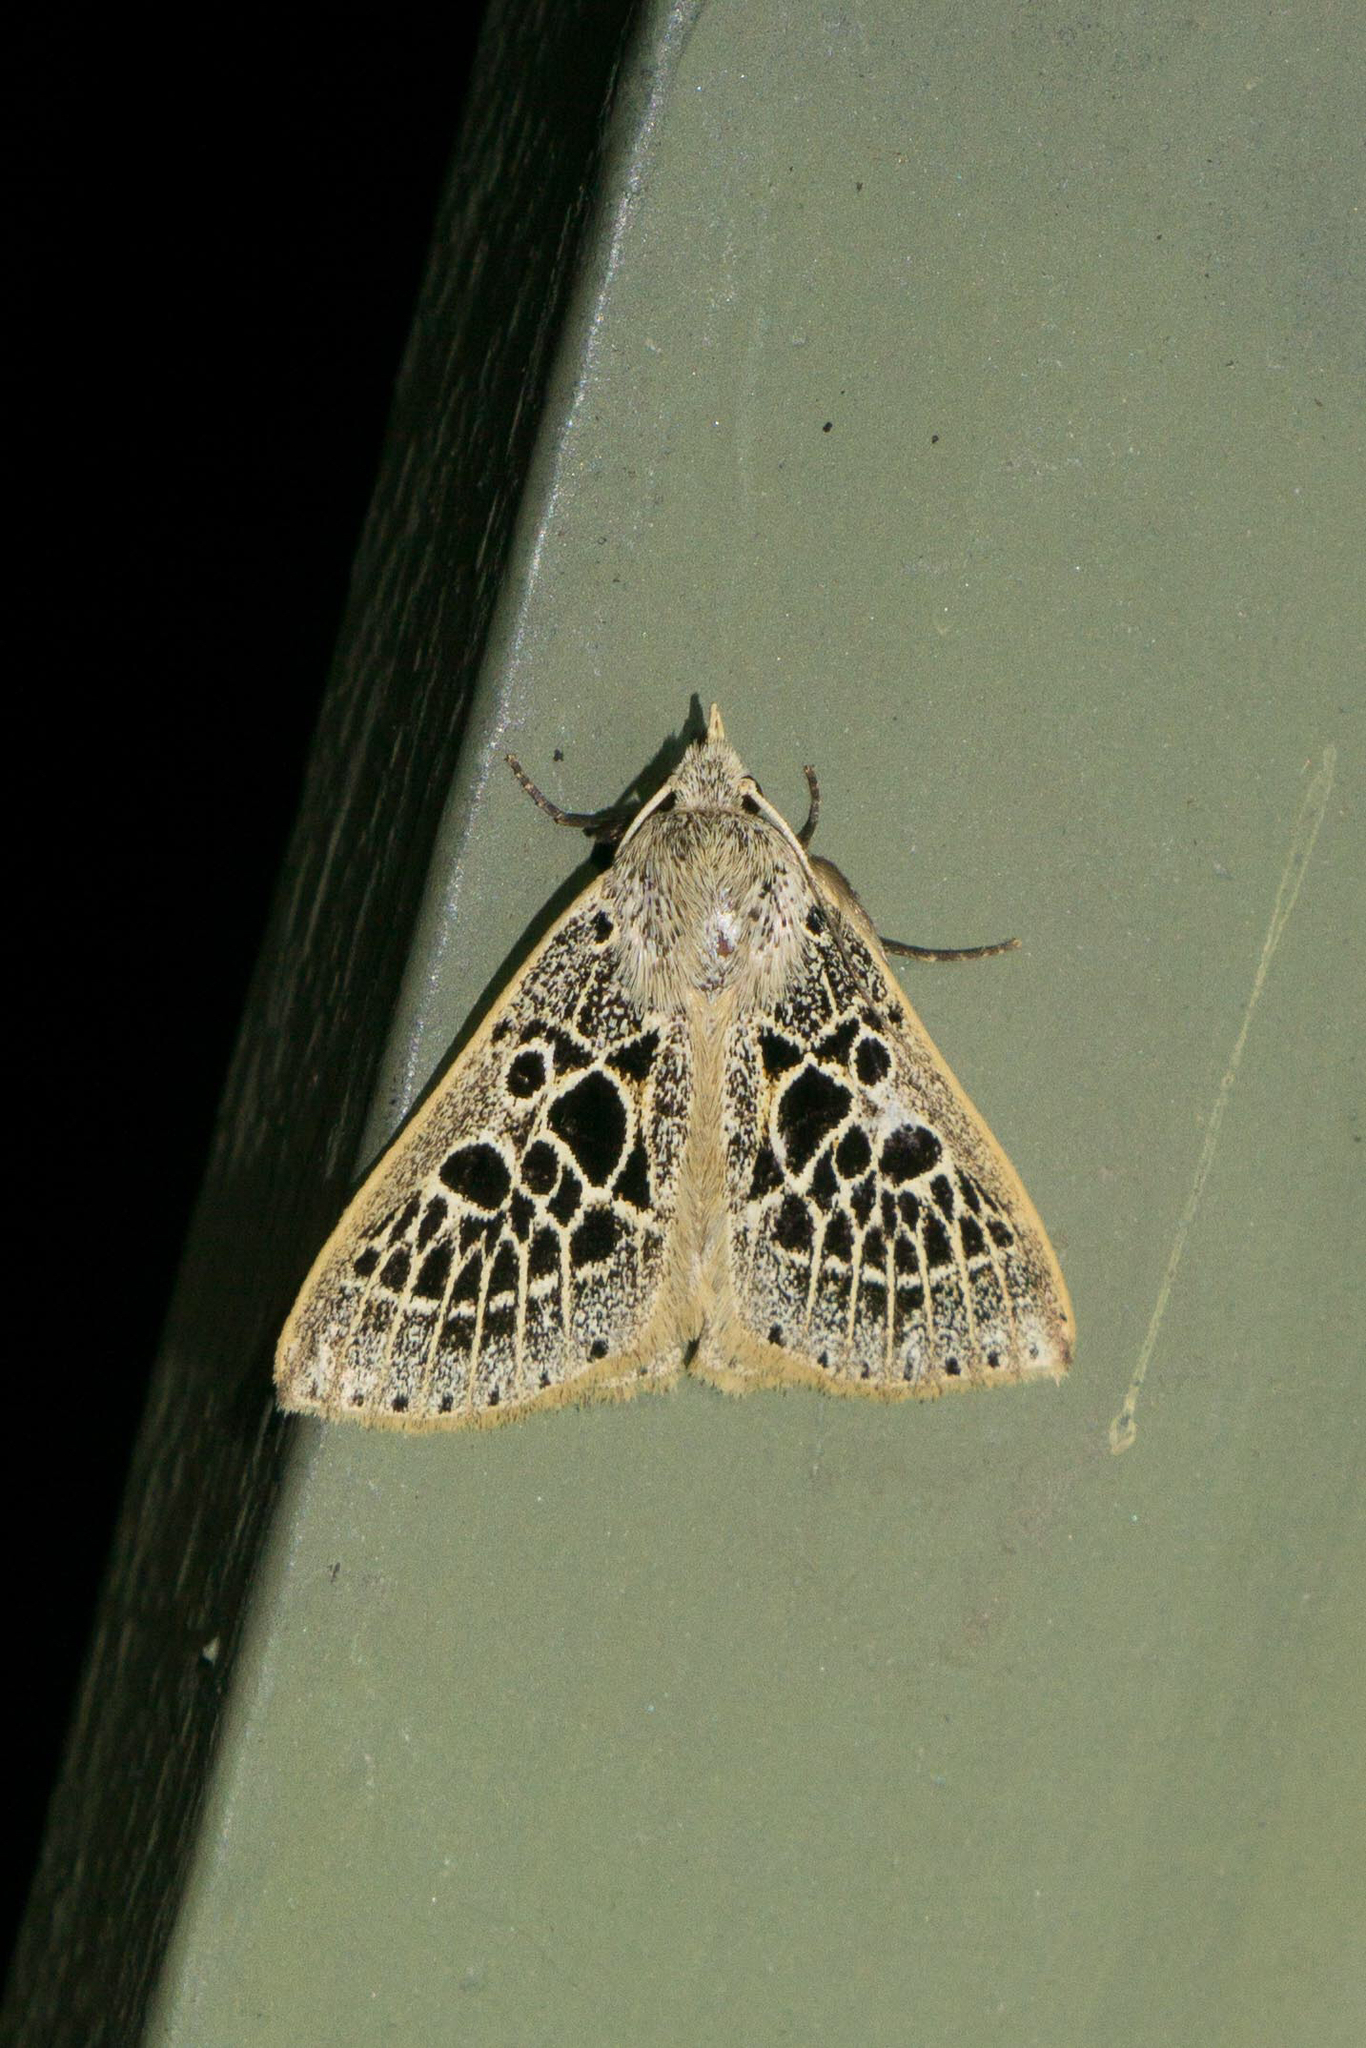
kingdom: Animalia
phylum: Arthropoda
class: Insecta
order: Lepidoptera
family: Erebidae
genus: Scolecocampa
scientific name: Scolecocampa Herminodes tessellata
